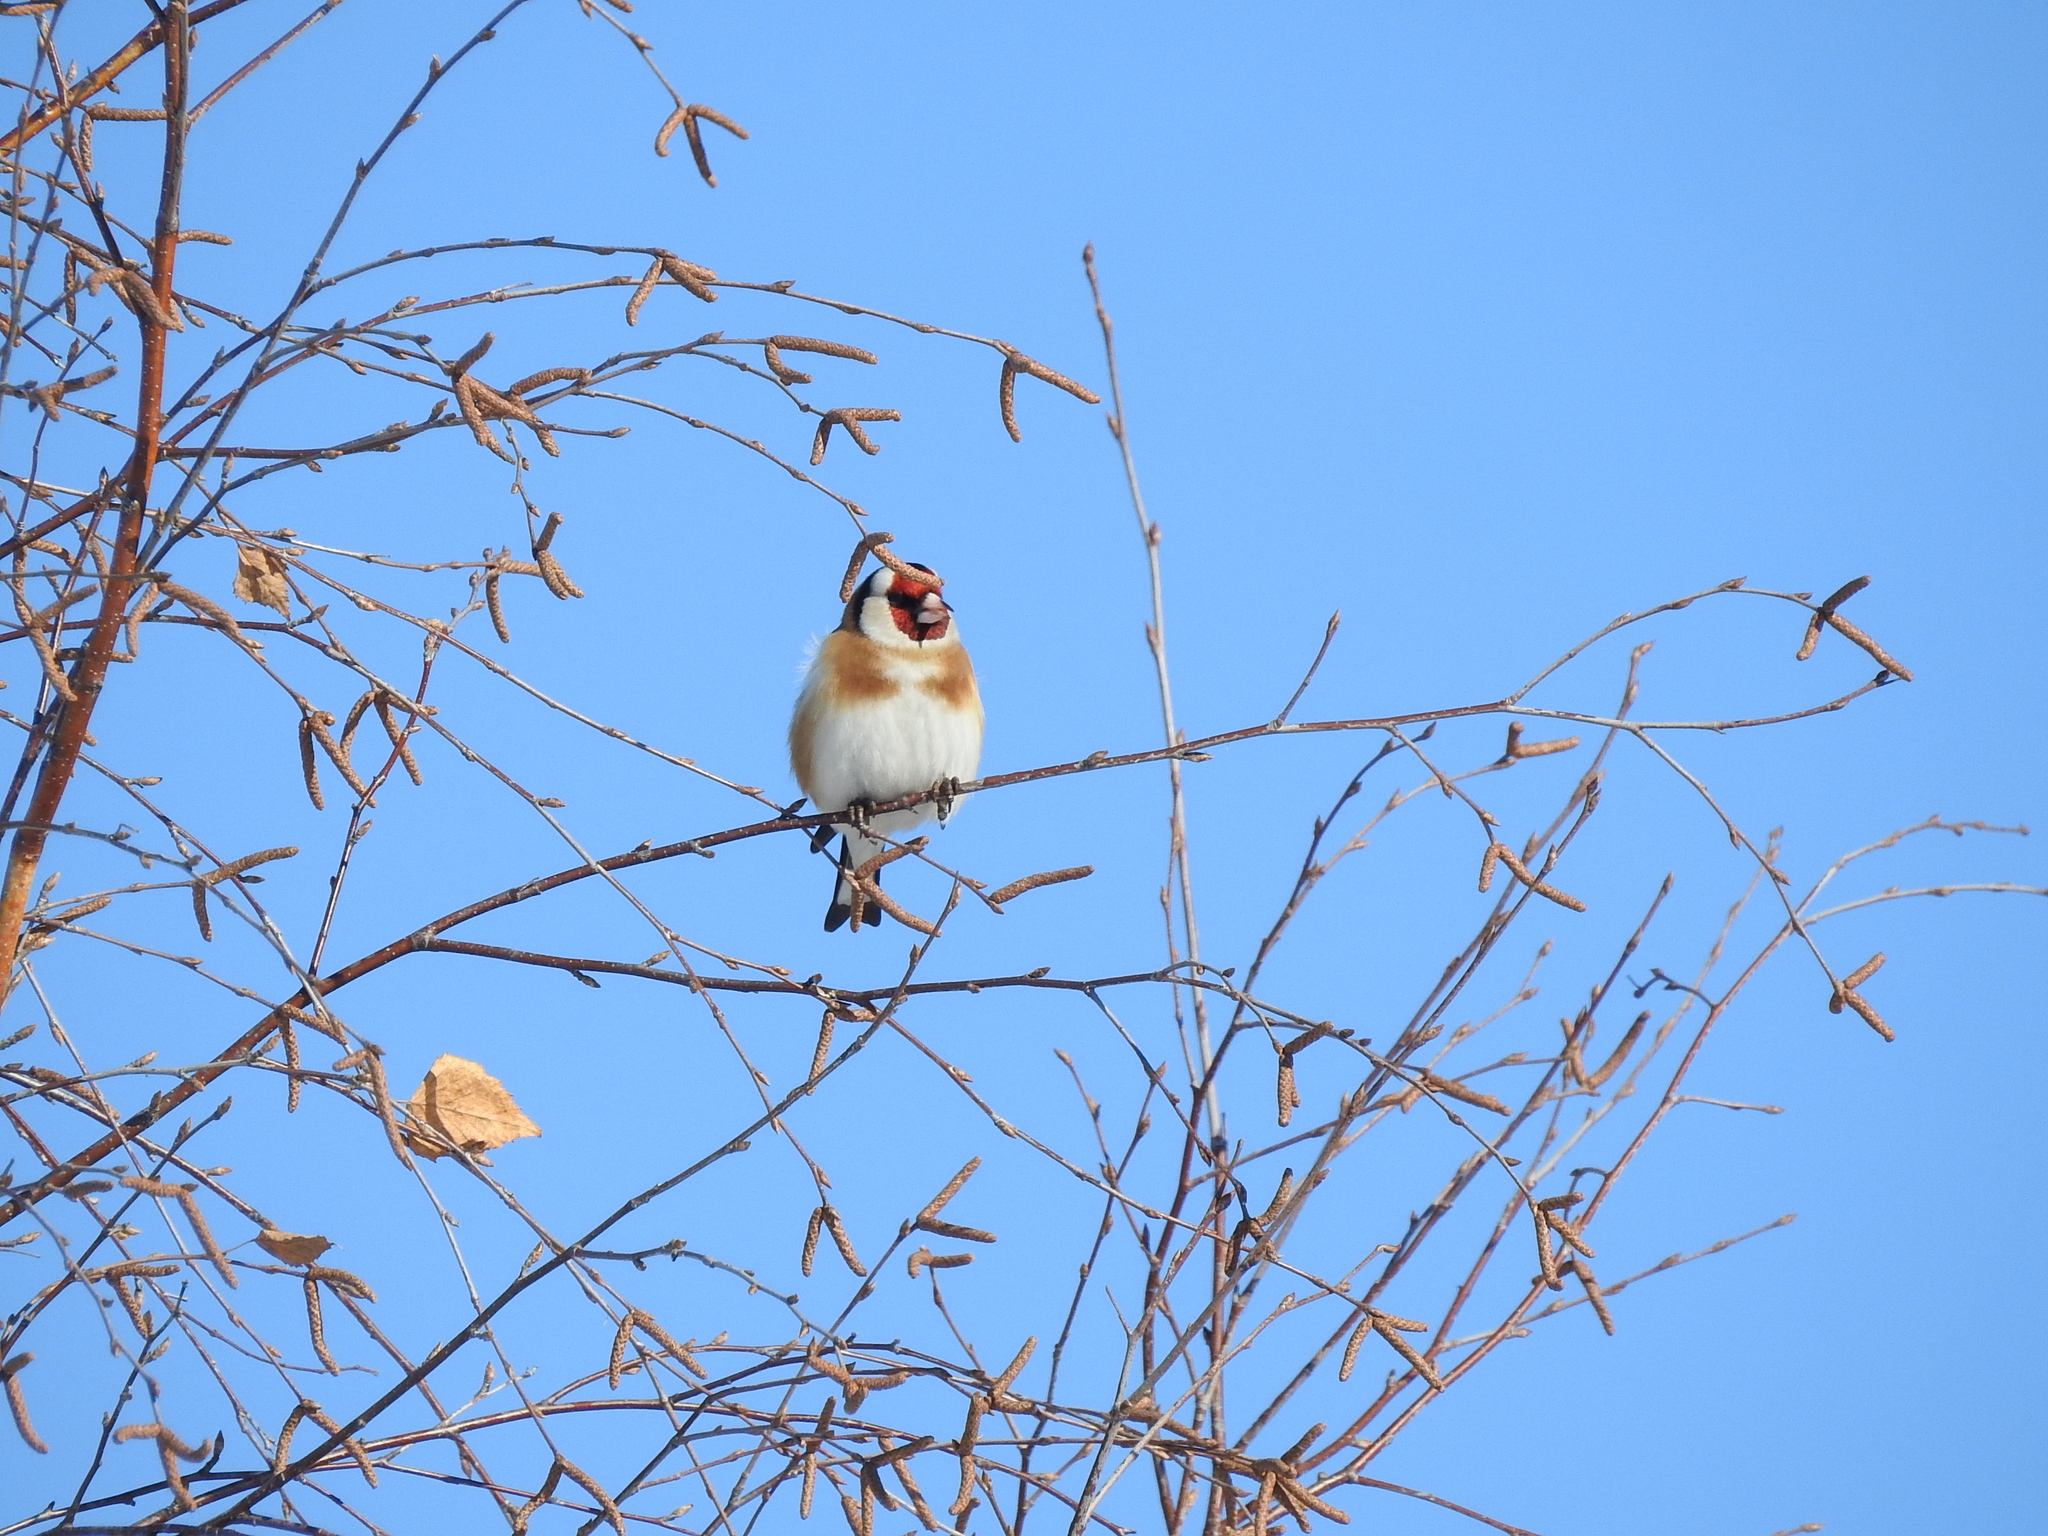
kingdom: Animalia
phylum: Chordata
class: Aves
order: Passeriformes
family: Fringillidae
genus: Carduelis
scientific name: Carduelis carduelis
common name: European goldfinch
